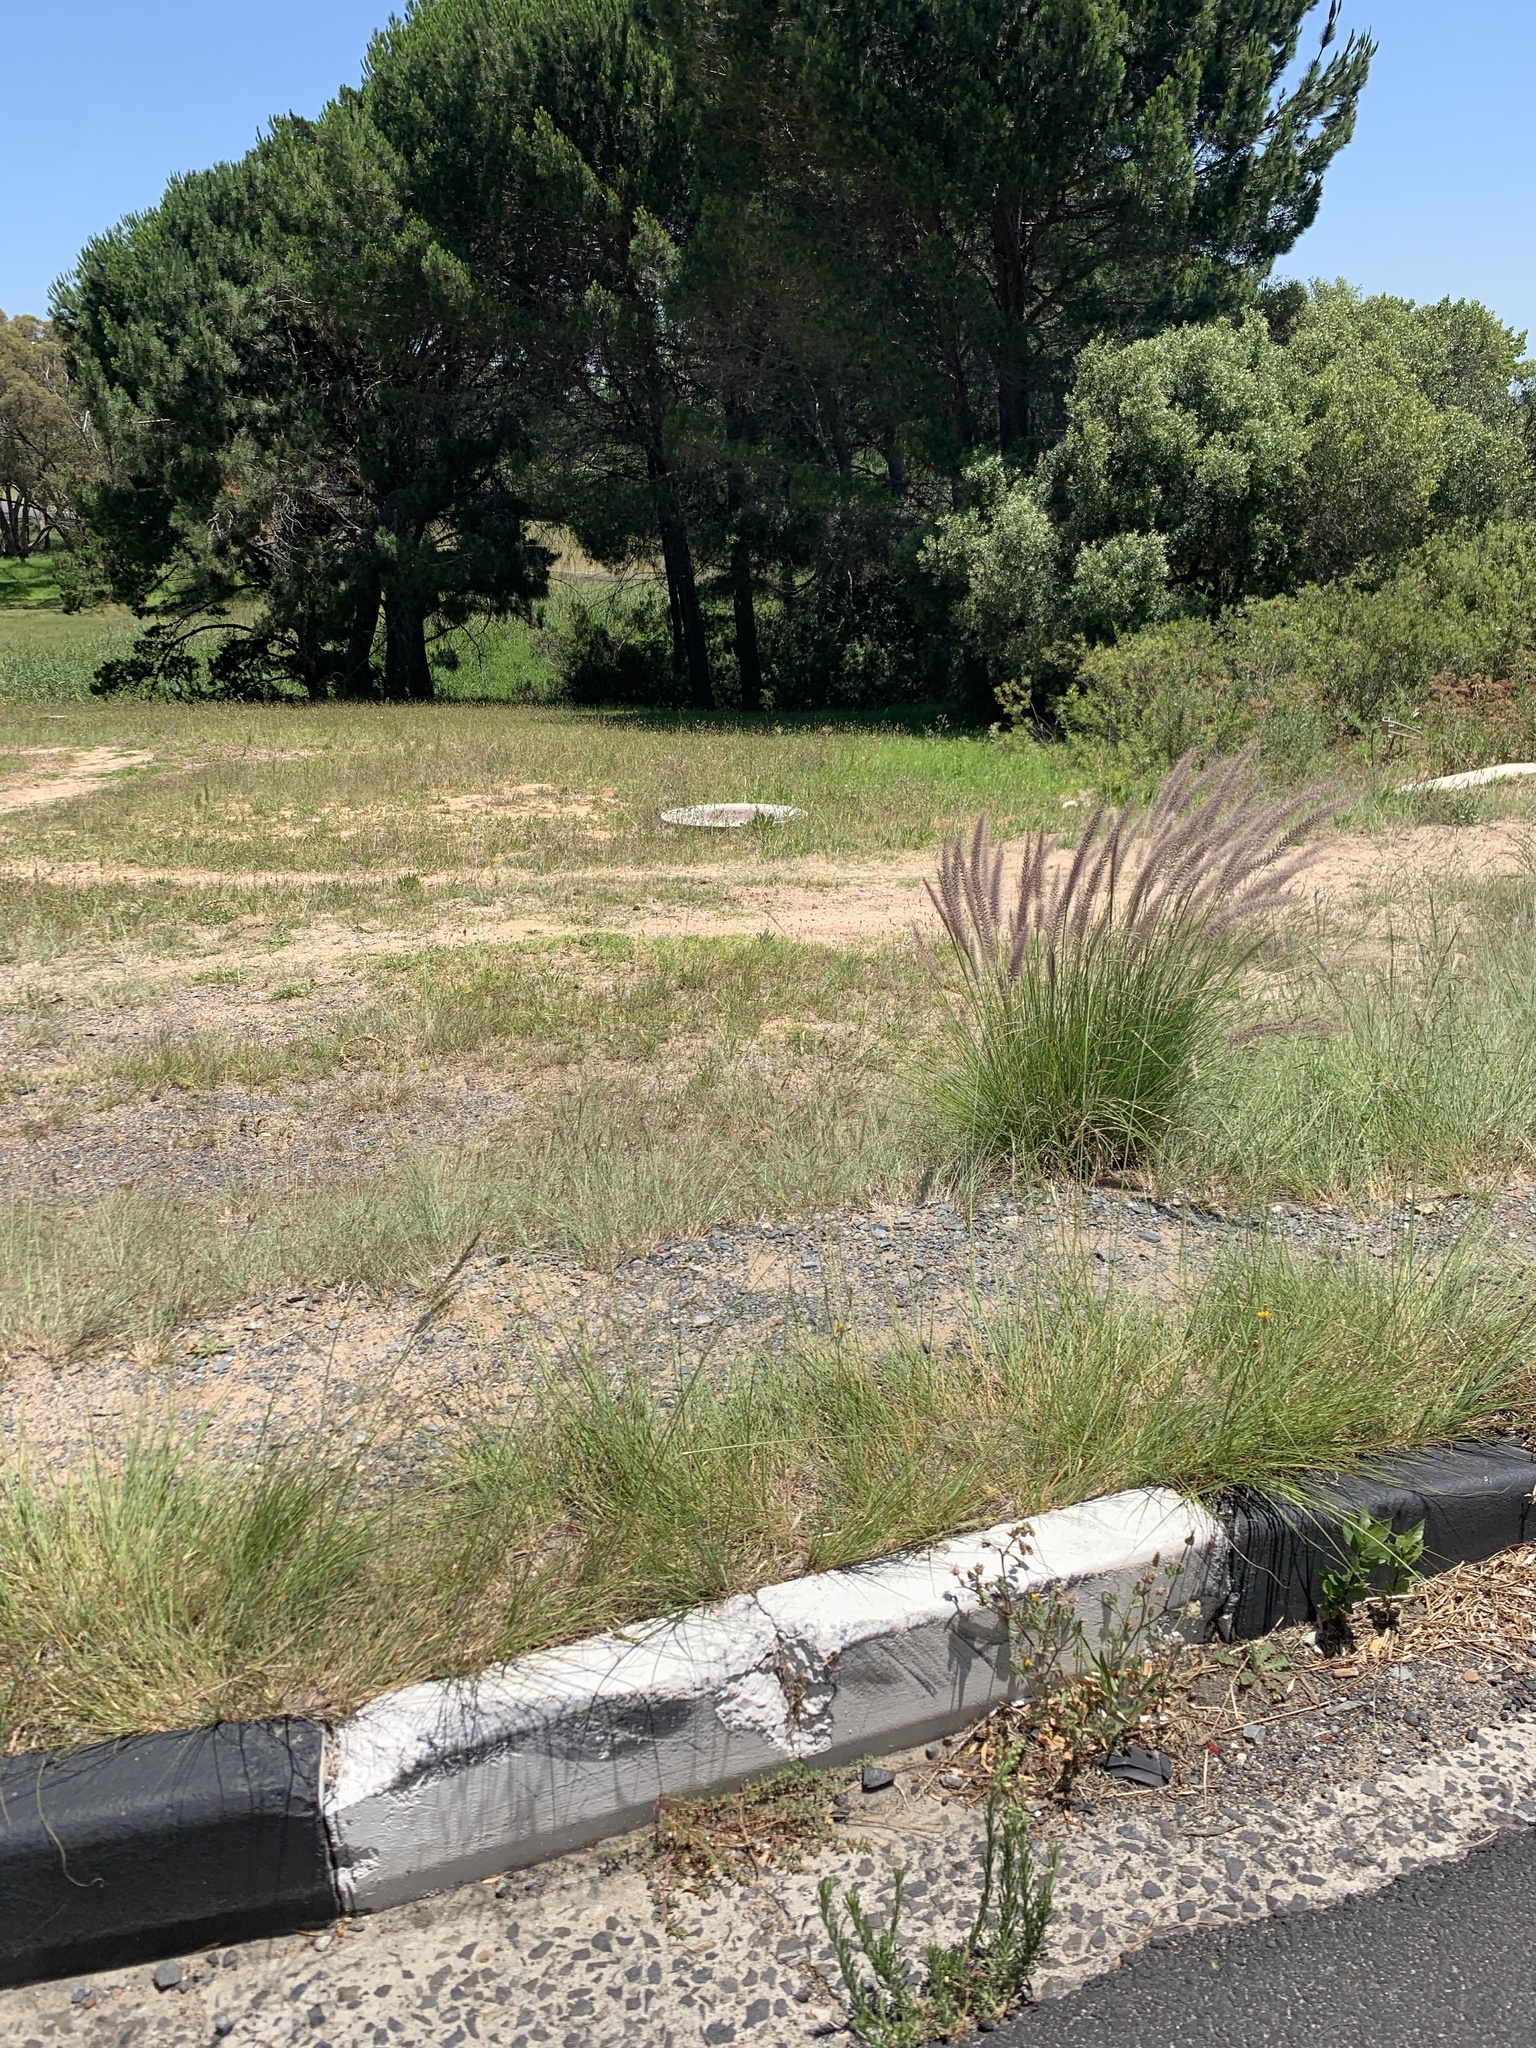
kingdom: Plantae
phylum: Tracheophyta
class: Liliopsida
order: Poales
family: Poaceae
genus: Cenchrus
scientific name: Cenchrus setaceus
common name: Crimson fountaingrass
